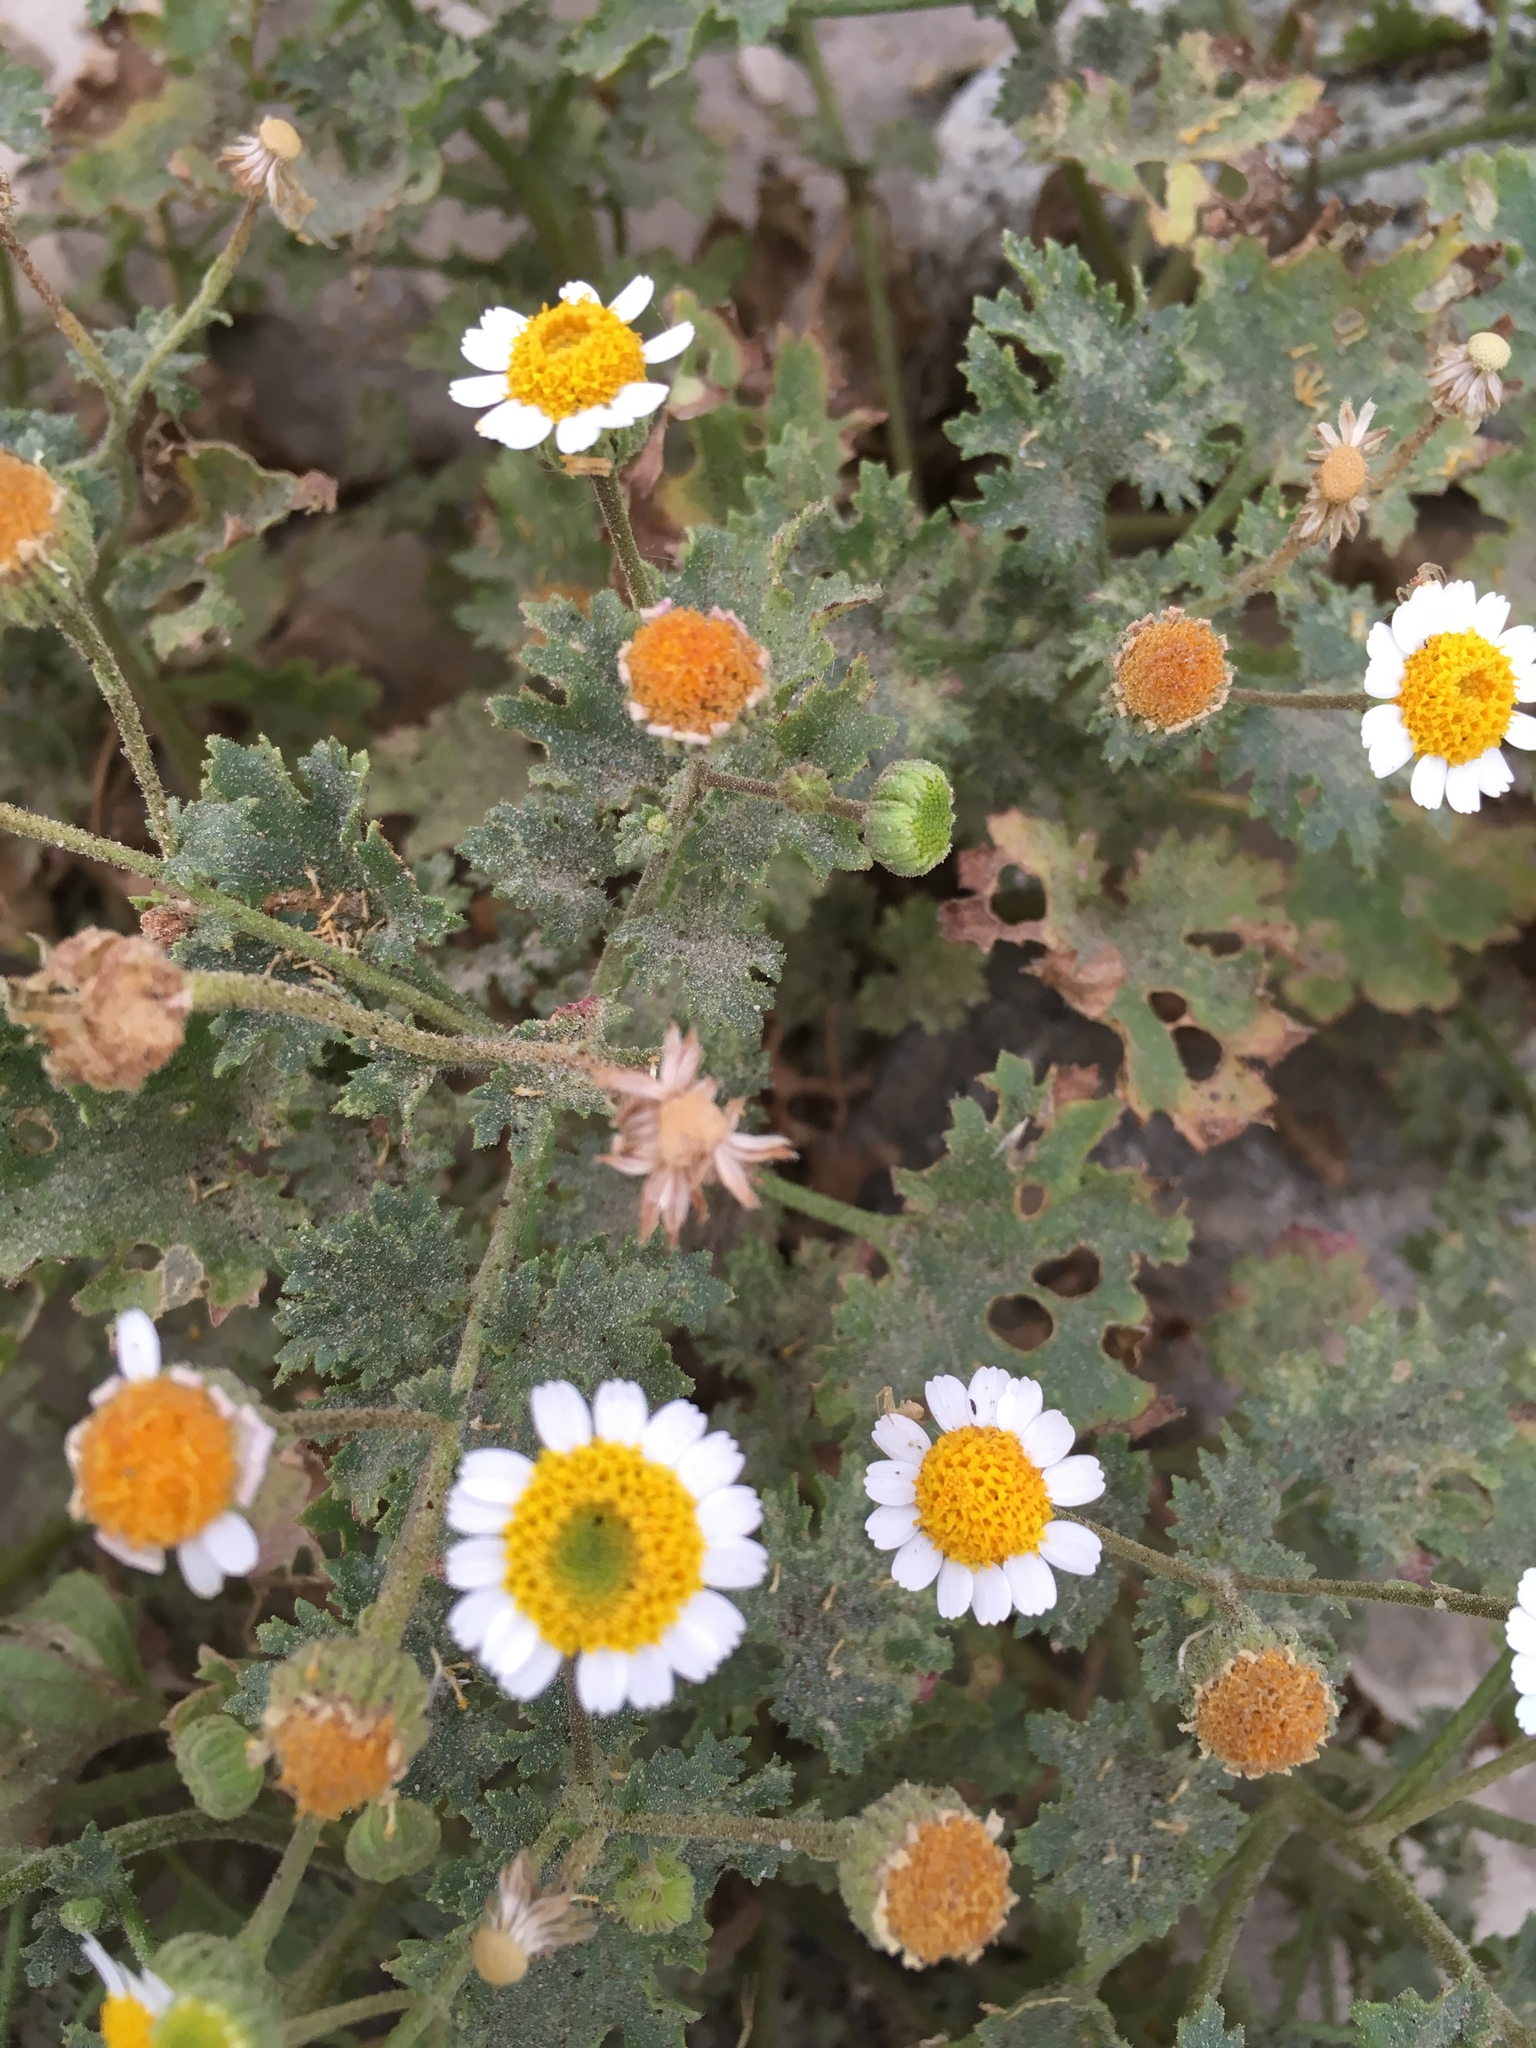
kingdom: Plantae
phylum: Tracheophyta
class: Magnoliopsida
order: Asterales
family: Asteraceae
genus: Laphamia
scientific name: Laphamia emoryi
